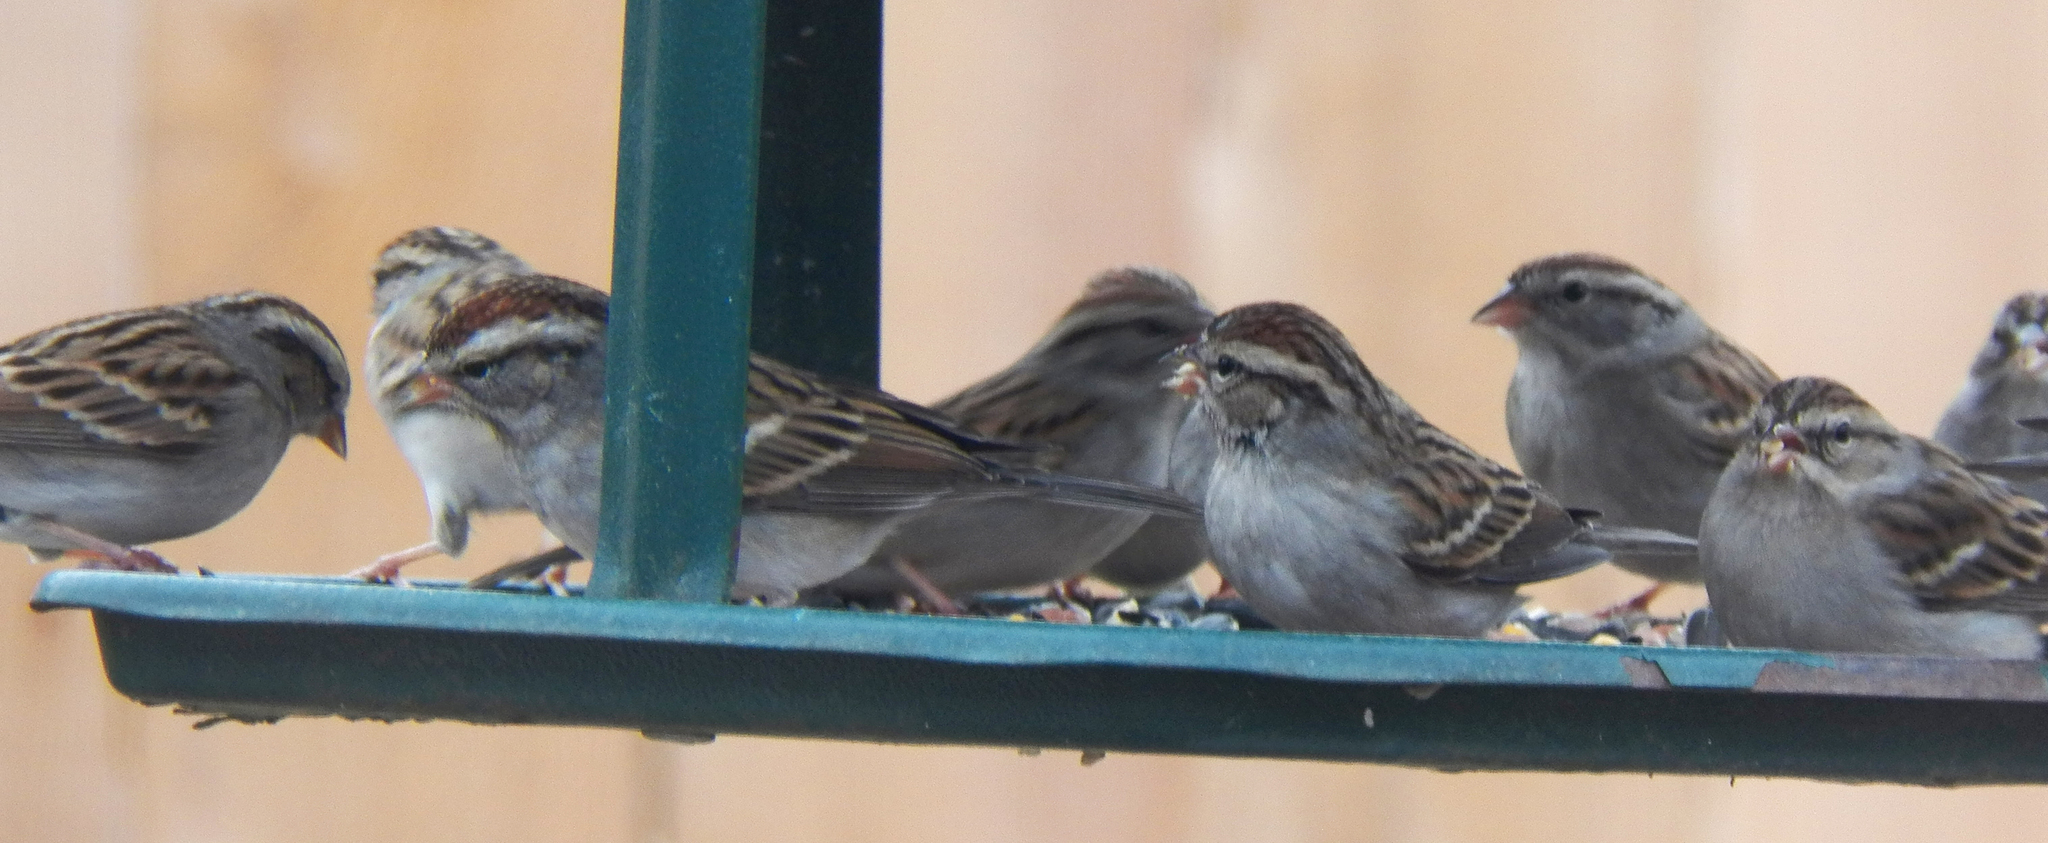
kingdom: Animalia
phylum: Chordata
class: Aves
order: Passeriformes
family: Passerellidae
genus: Spizella
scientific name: Spizella passerina
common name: Chipping sparrow
